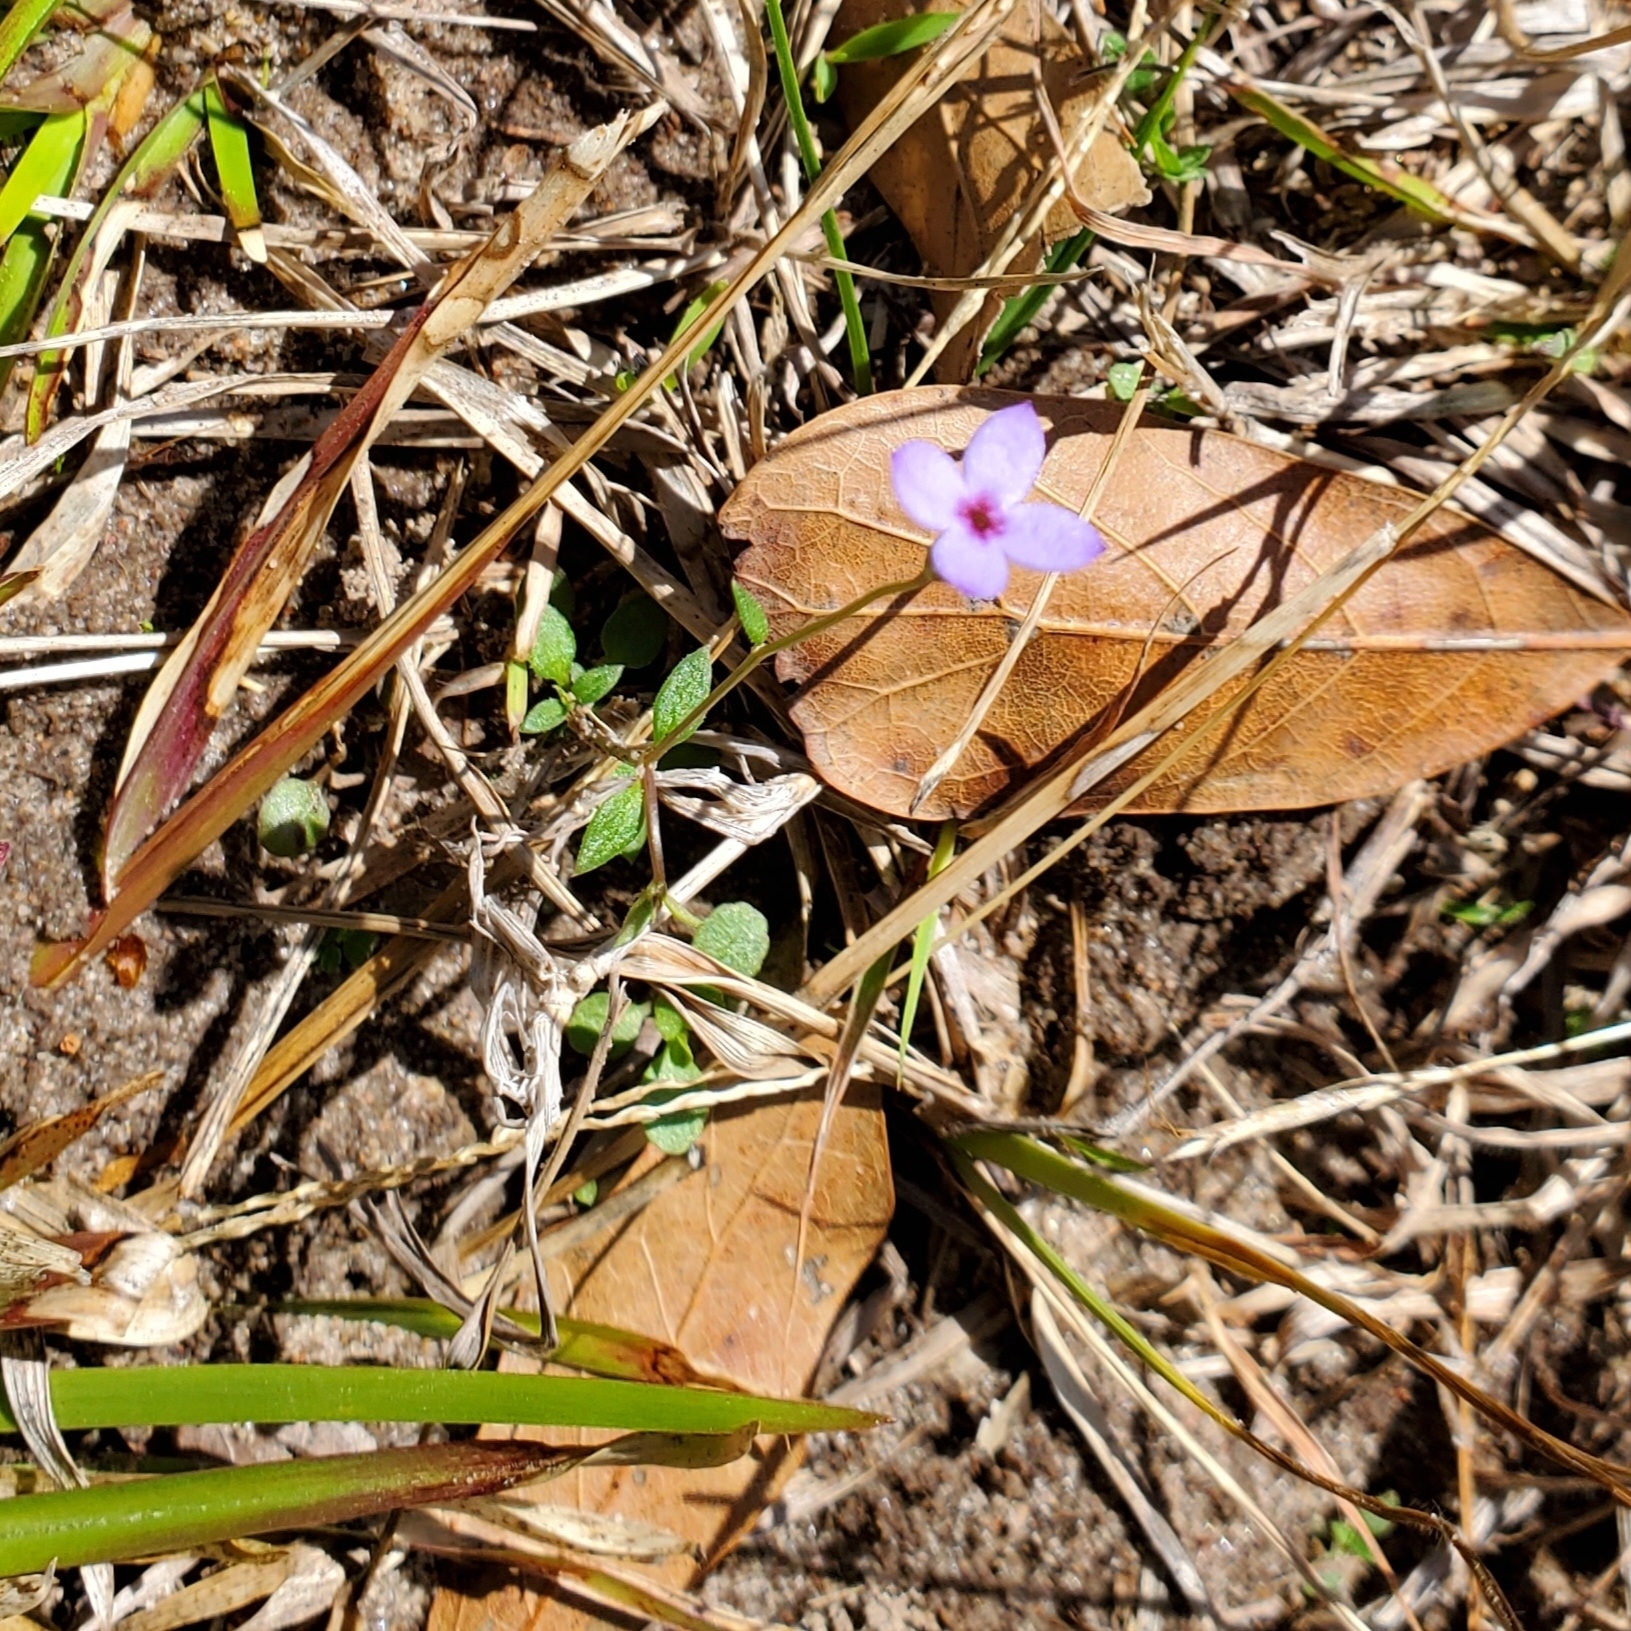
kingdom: Plantae
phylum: Tracheophyta
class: Magnoliopsida
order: Gentianales
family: Rubiaceae
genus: Houstonia
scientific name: Houstonia pusilla
